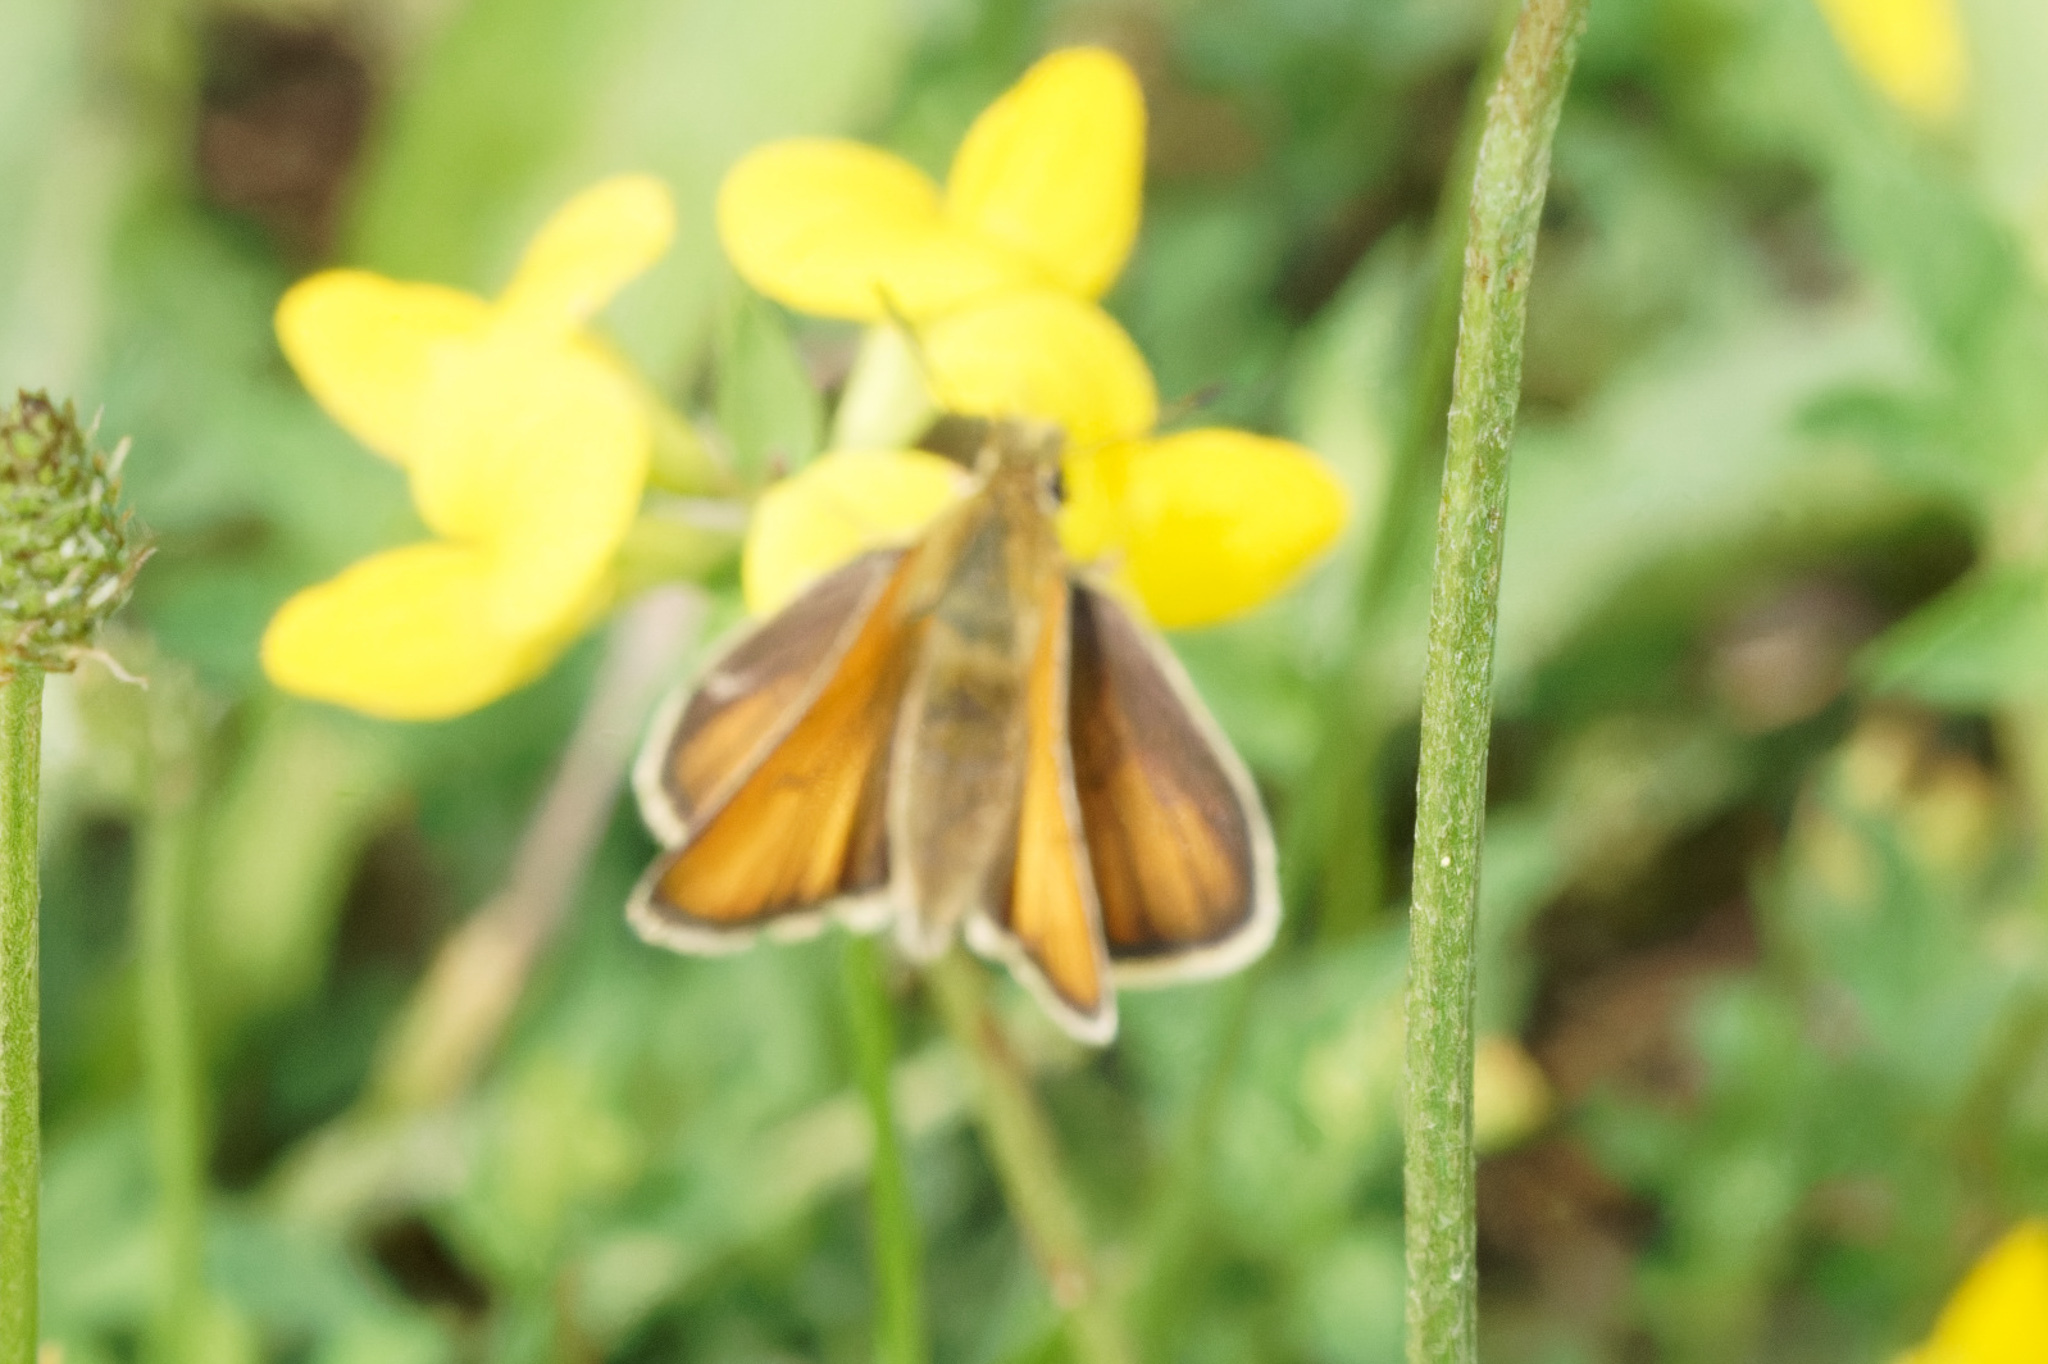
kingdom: Animalia
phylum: Arthropoda
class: Insecta
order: Lepidoptera
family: Hesperiidae
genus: Thymelicus
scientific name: Thymelicus lineola
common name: Essex skipper
